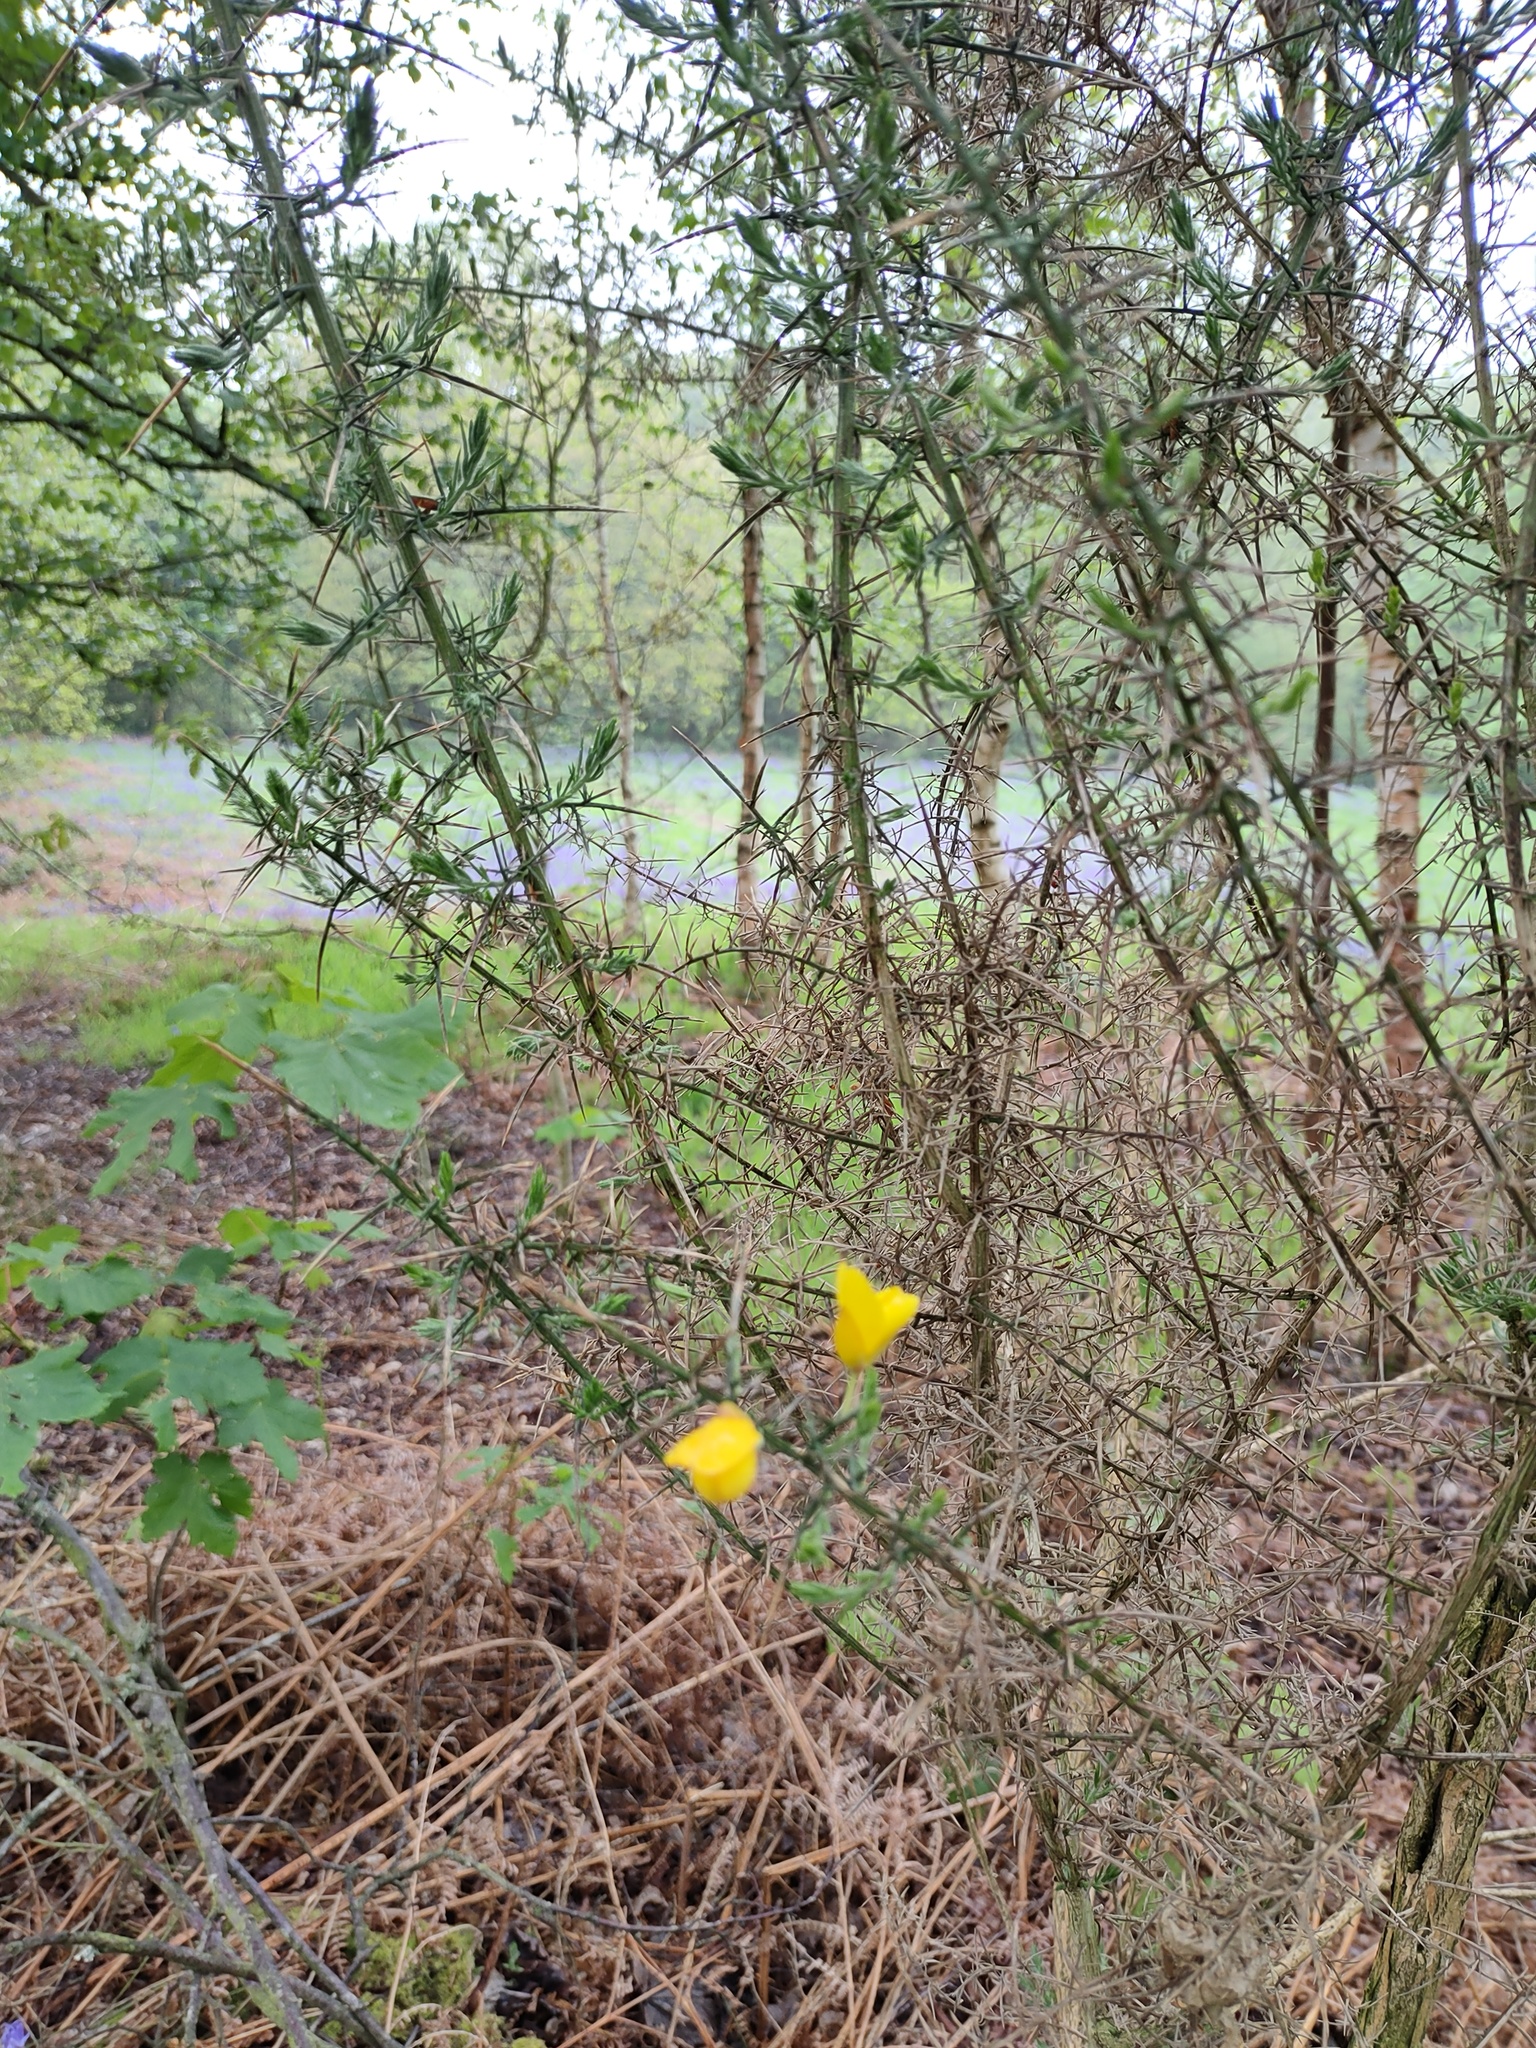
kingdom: Plantae
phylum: Tracheophyta
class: Magnoliopsida
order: Fabales
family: Fabaceae
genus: Ulex
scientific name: Ulex europaeus
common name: Common gorse
